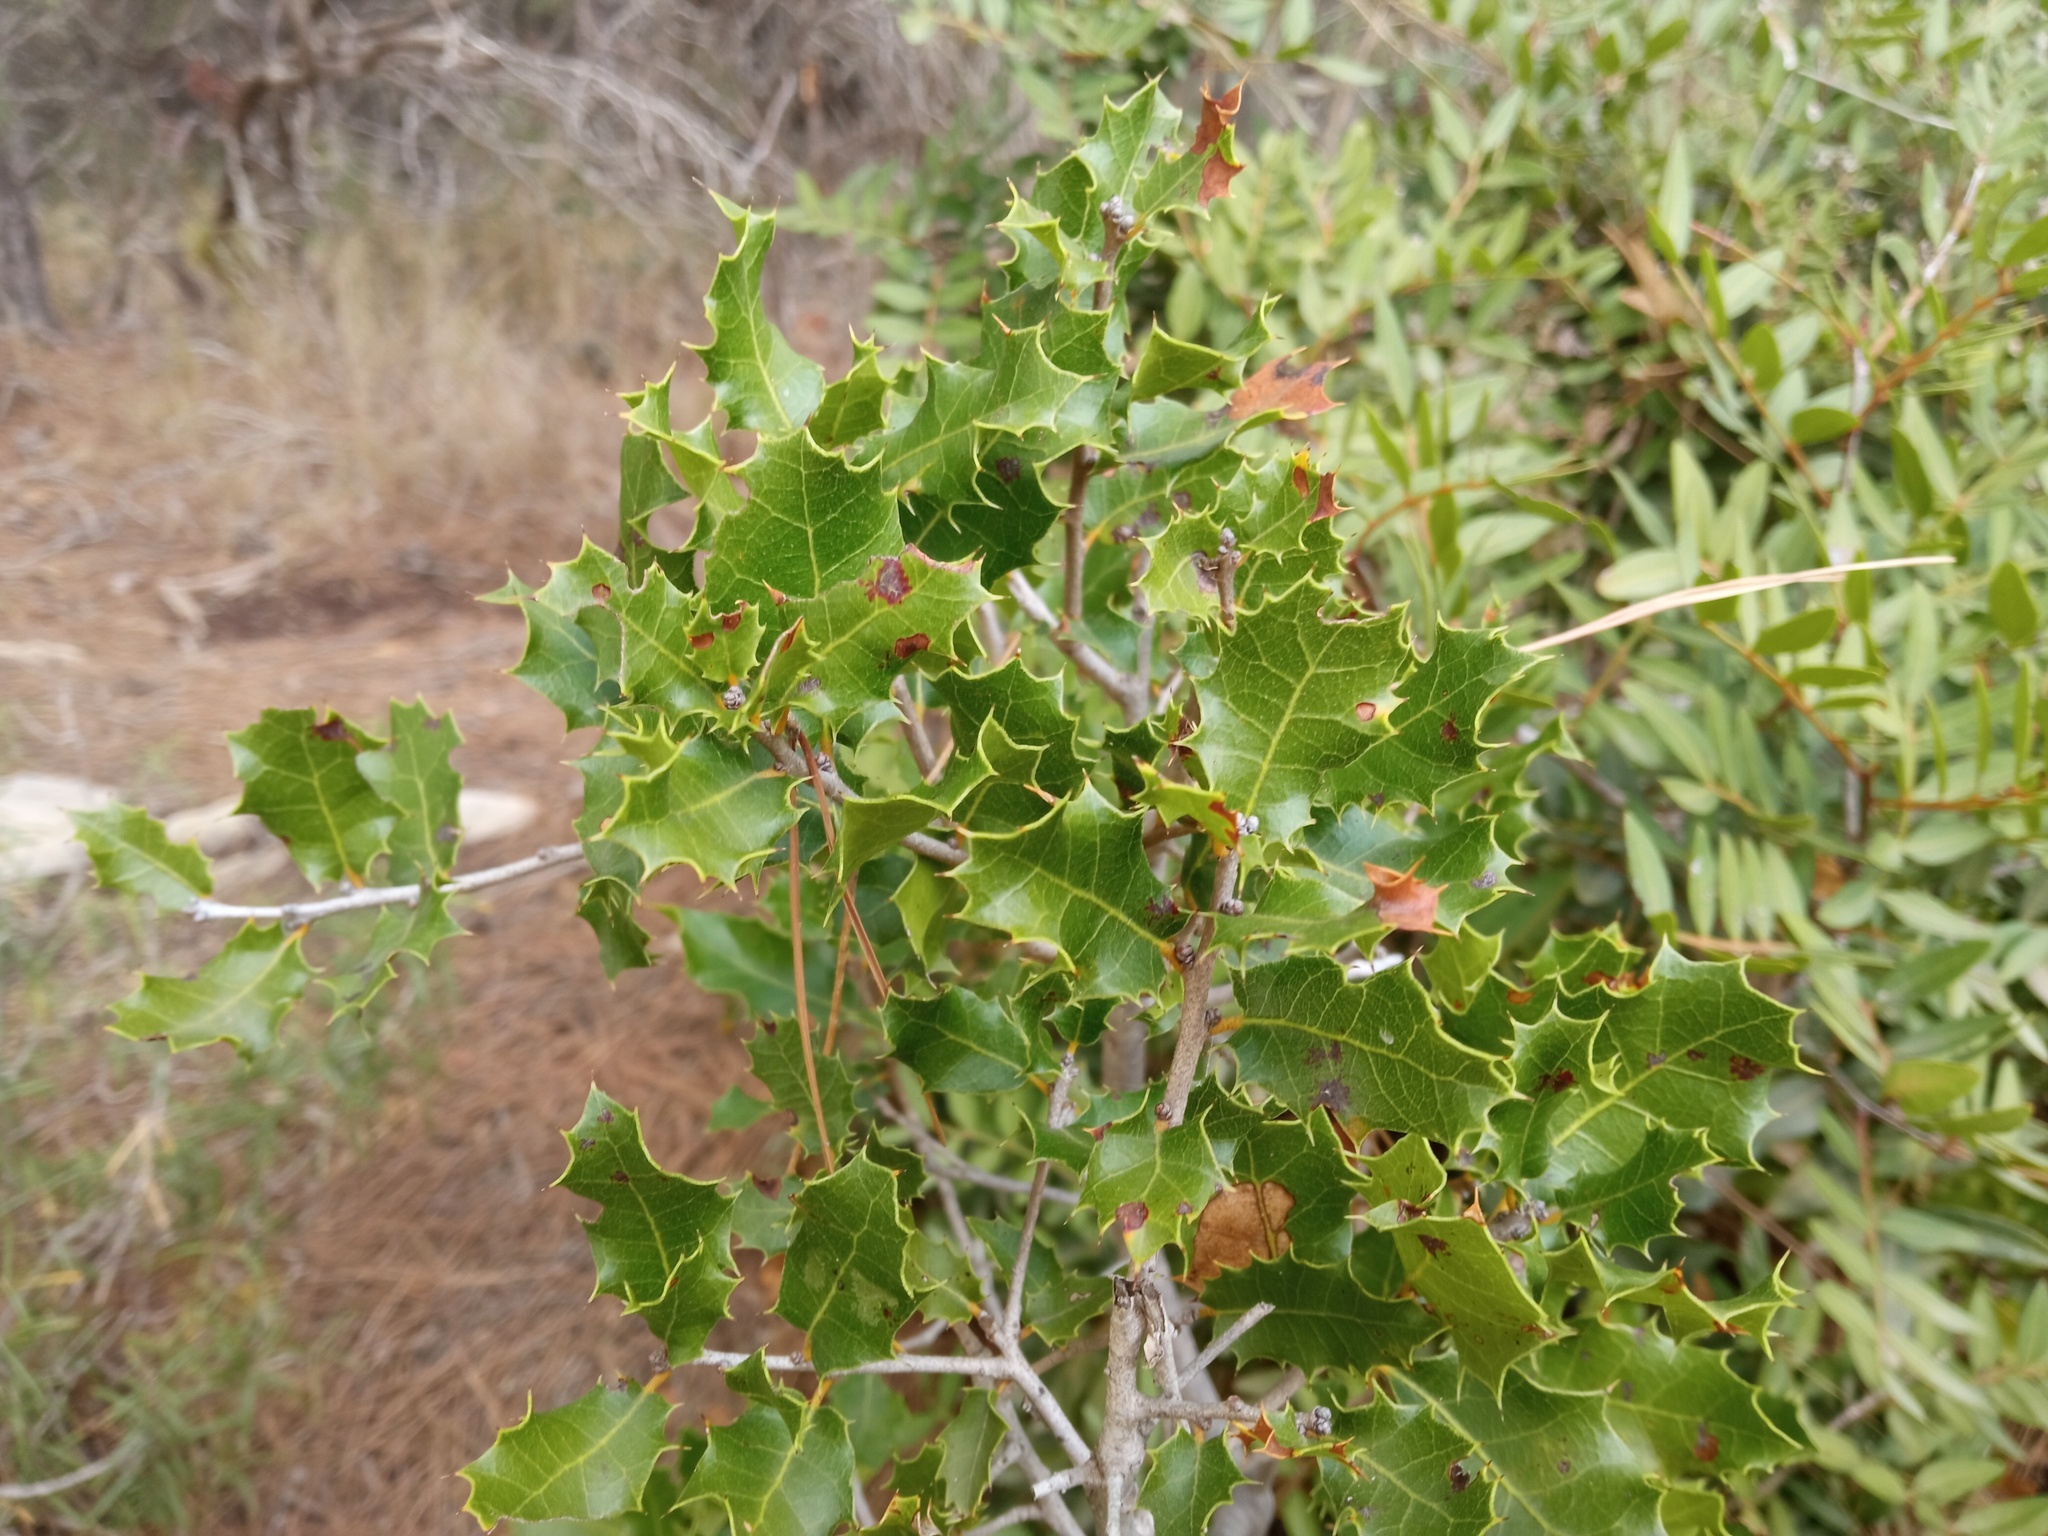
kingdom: Plantae
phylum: Tracheophyta
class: Magnoliopsida
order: Fagales
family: Fagaceae
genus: Quercus
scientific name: Quercus coccifera
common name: Kermes oak
